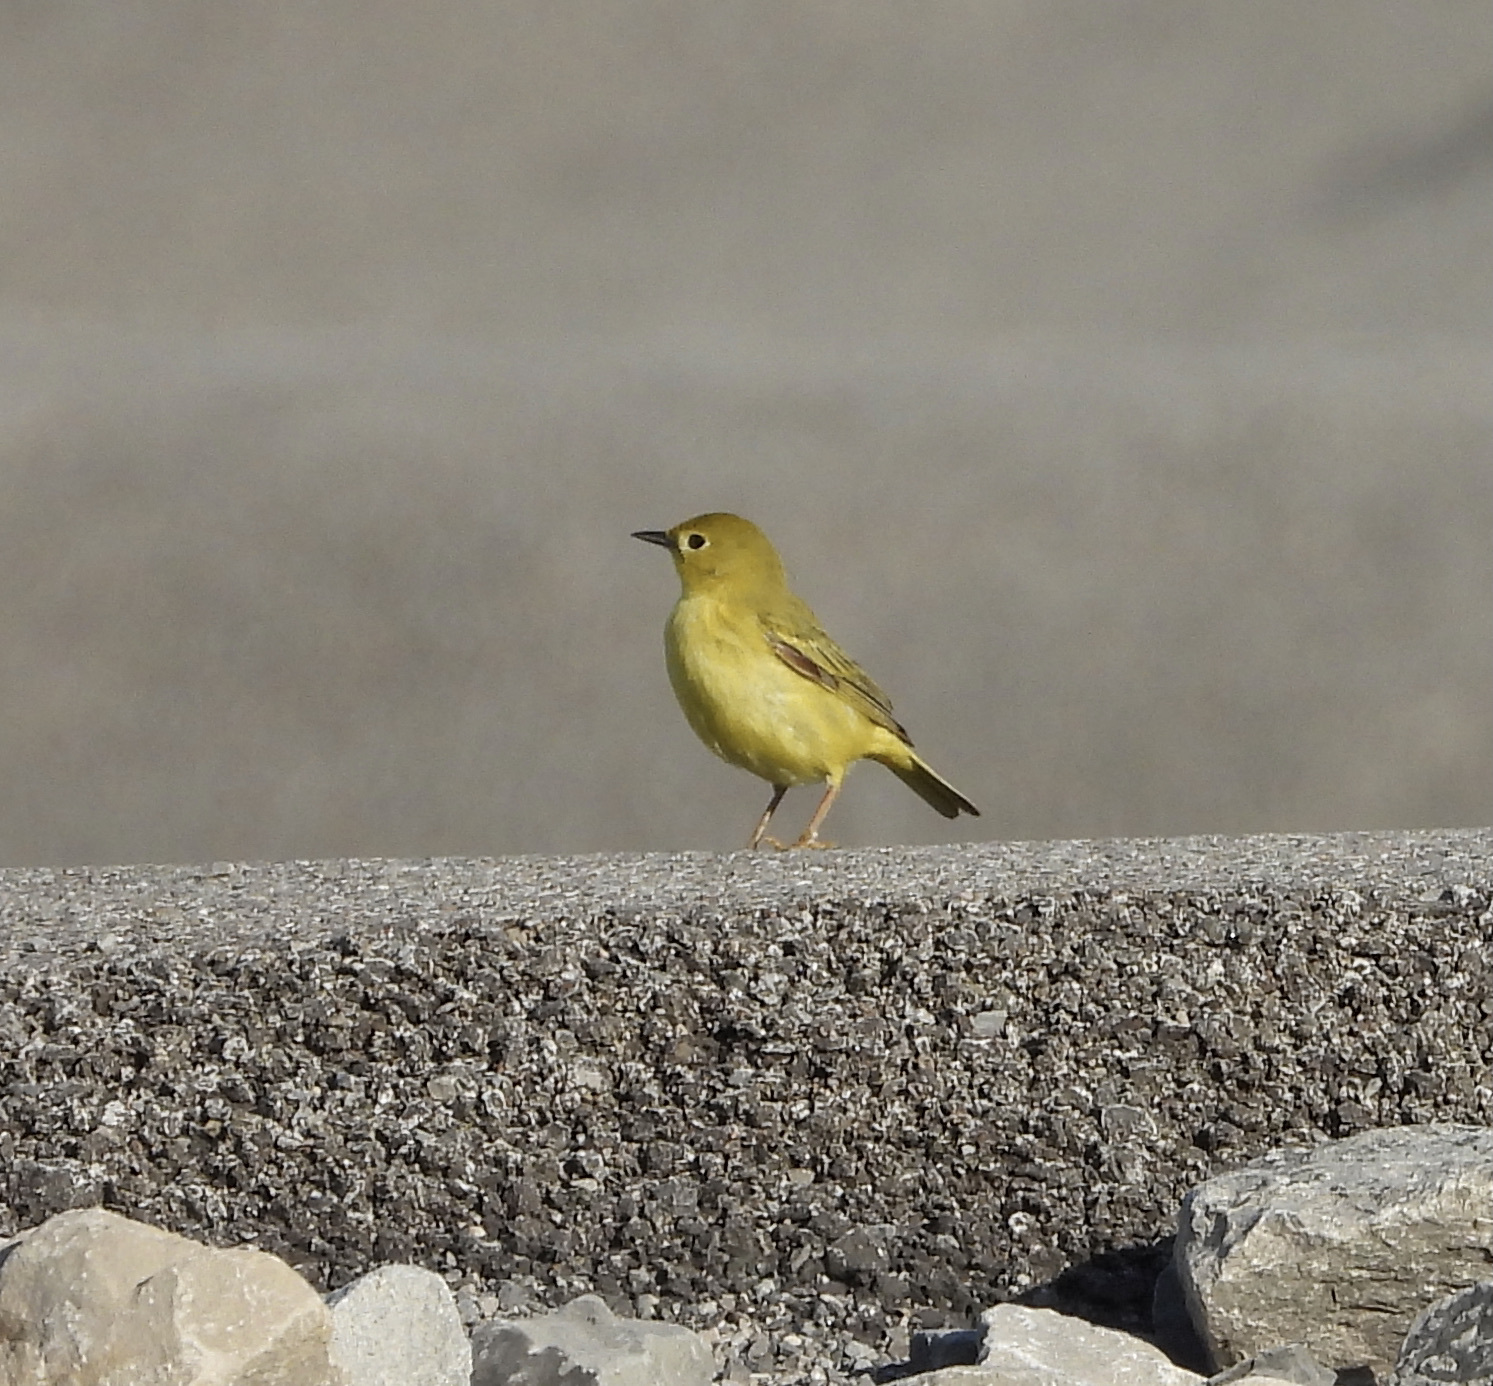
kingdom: Animalia
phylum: Chordata
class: Aves
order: Passeriformes
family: Parulidae
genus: Setophaga
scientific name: Setophaga petechia
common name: Yellow warbler
